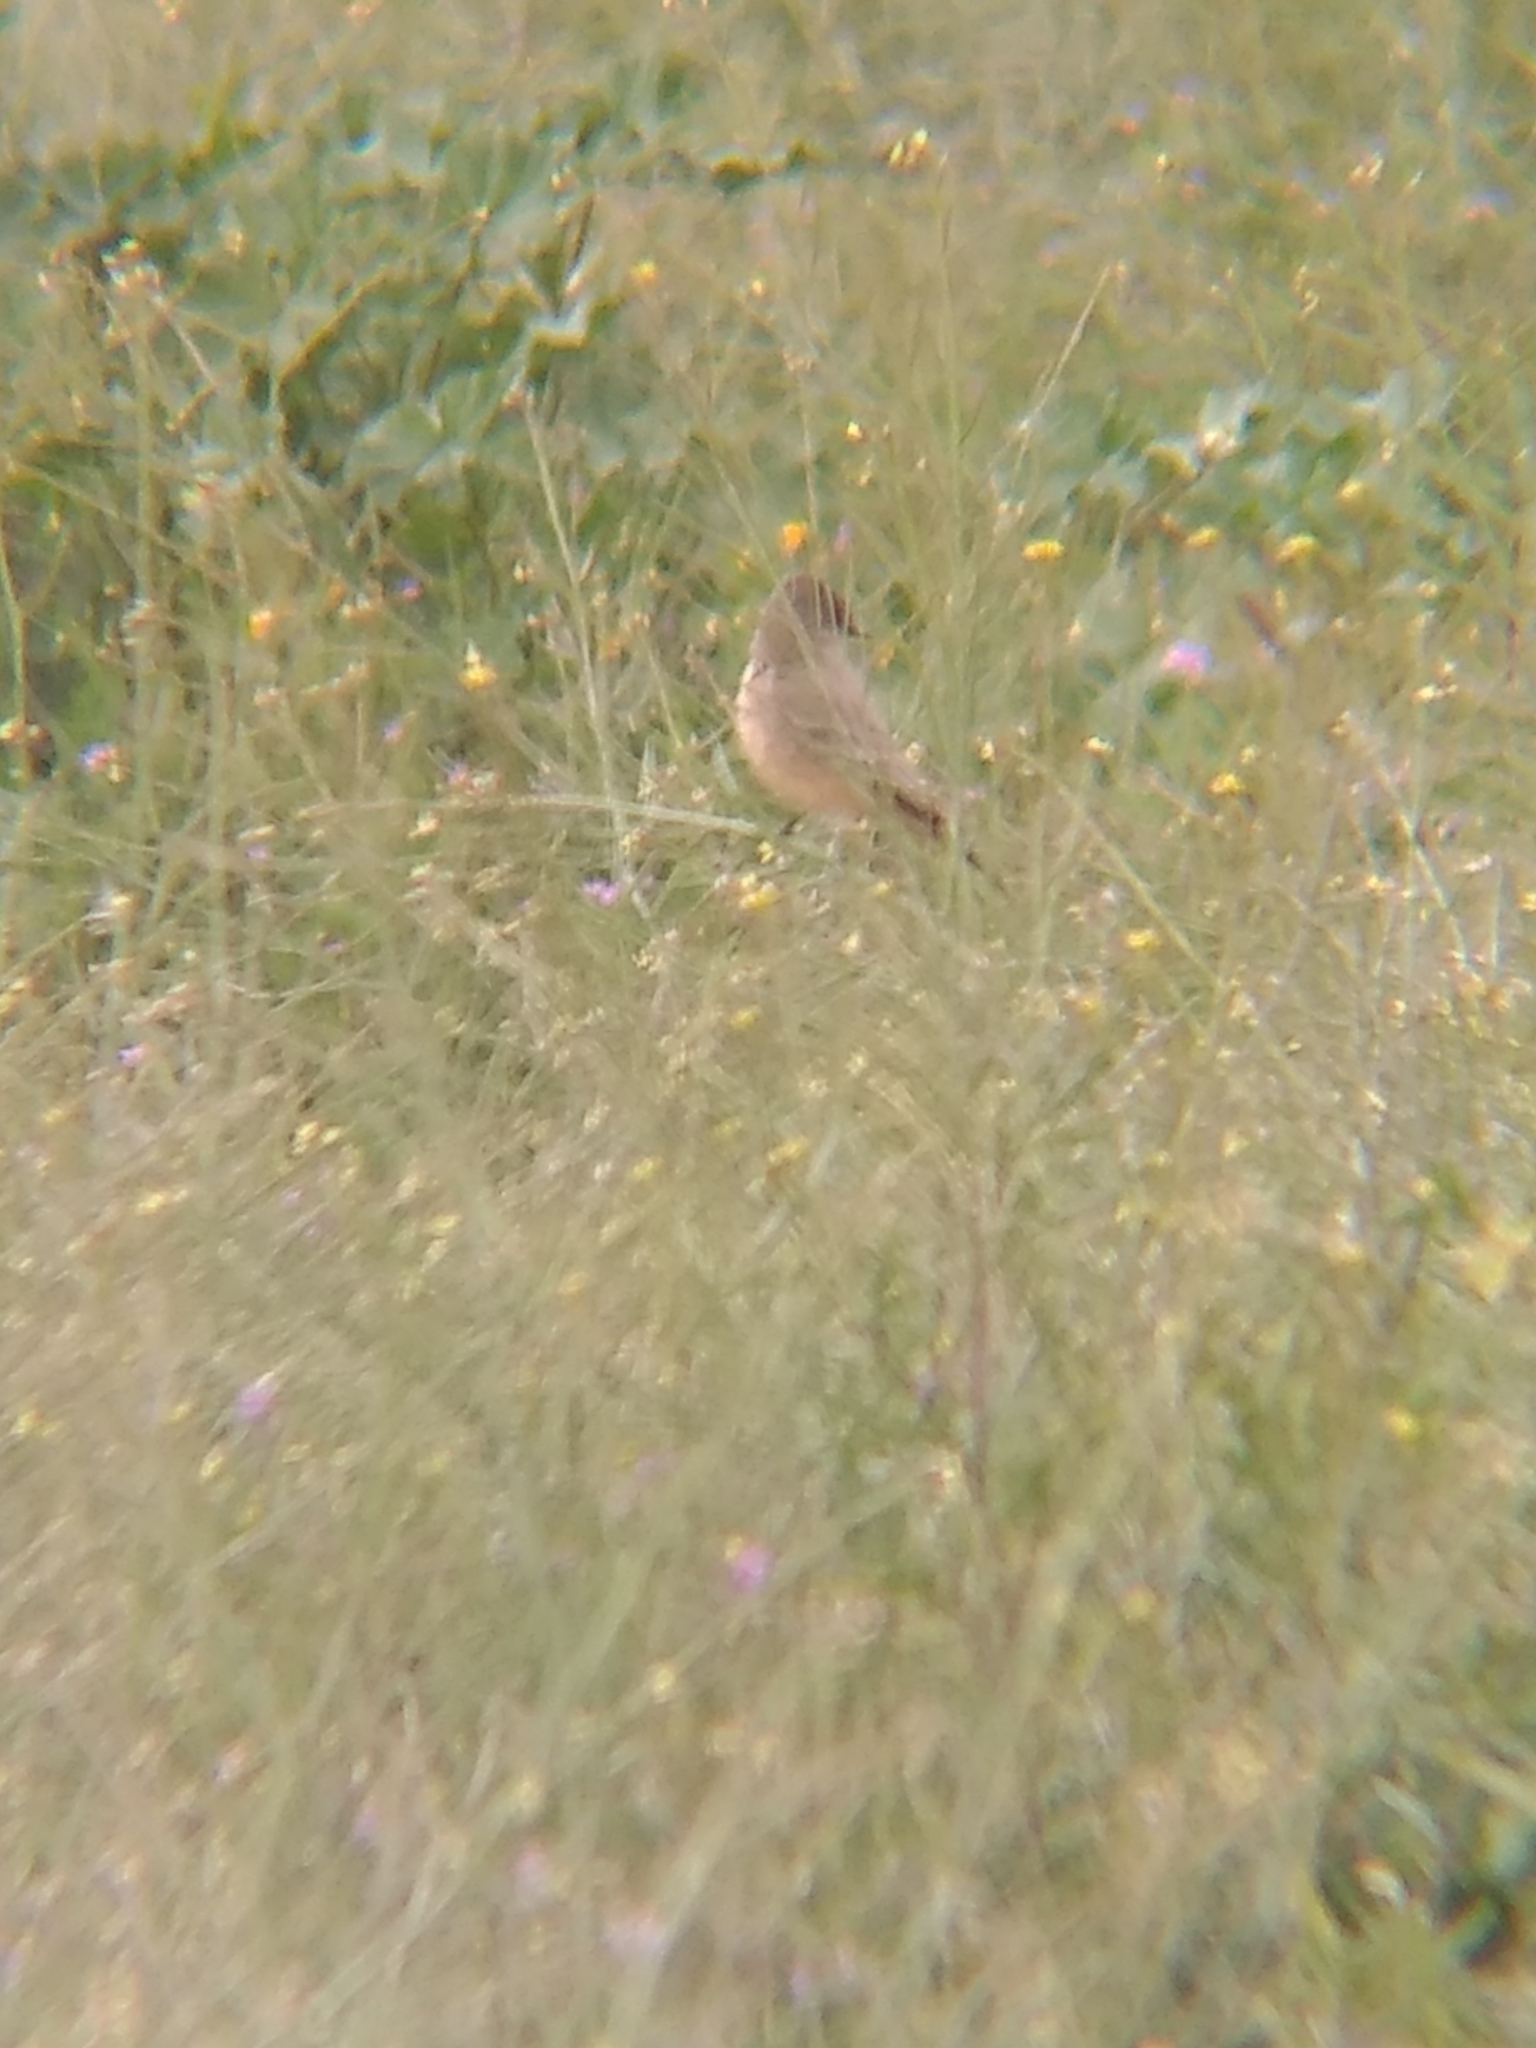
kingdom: Animalia
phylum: Chordata
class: Aves
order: Passeriformes
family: Tyrannidae
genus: Sayornis
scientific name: Sayornis saya
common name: Say's phoebe
